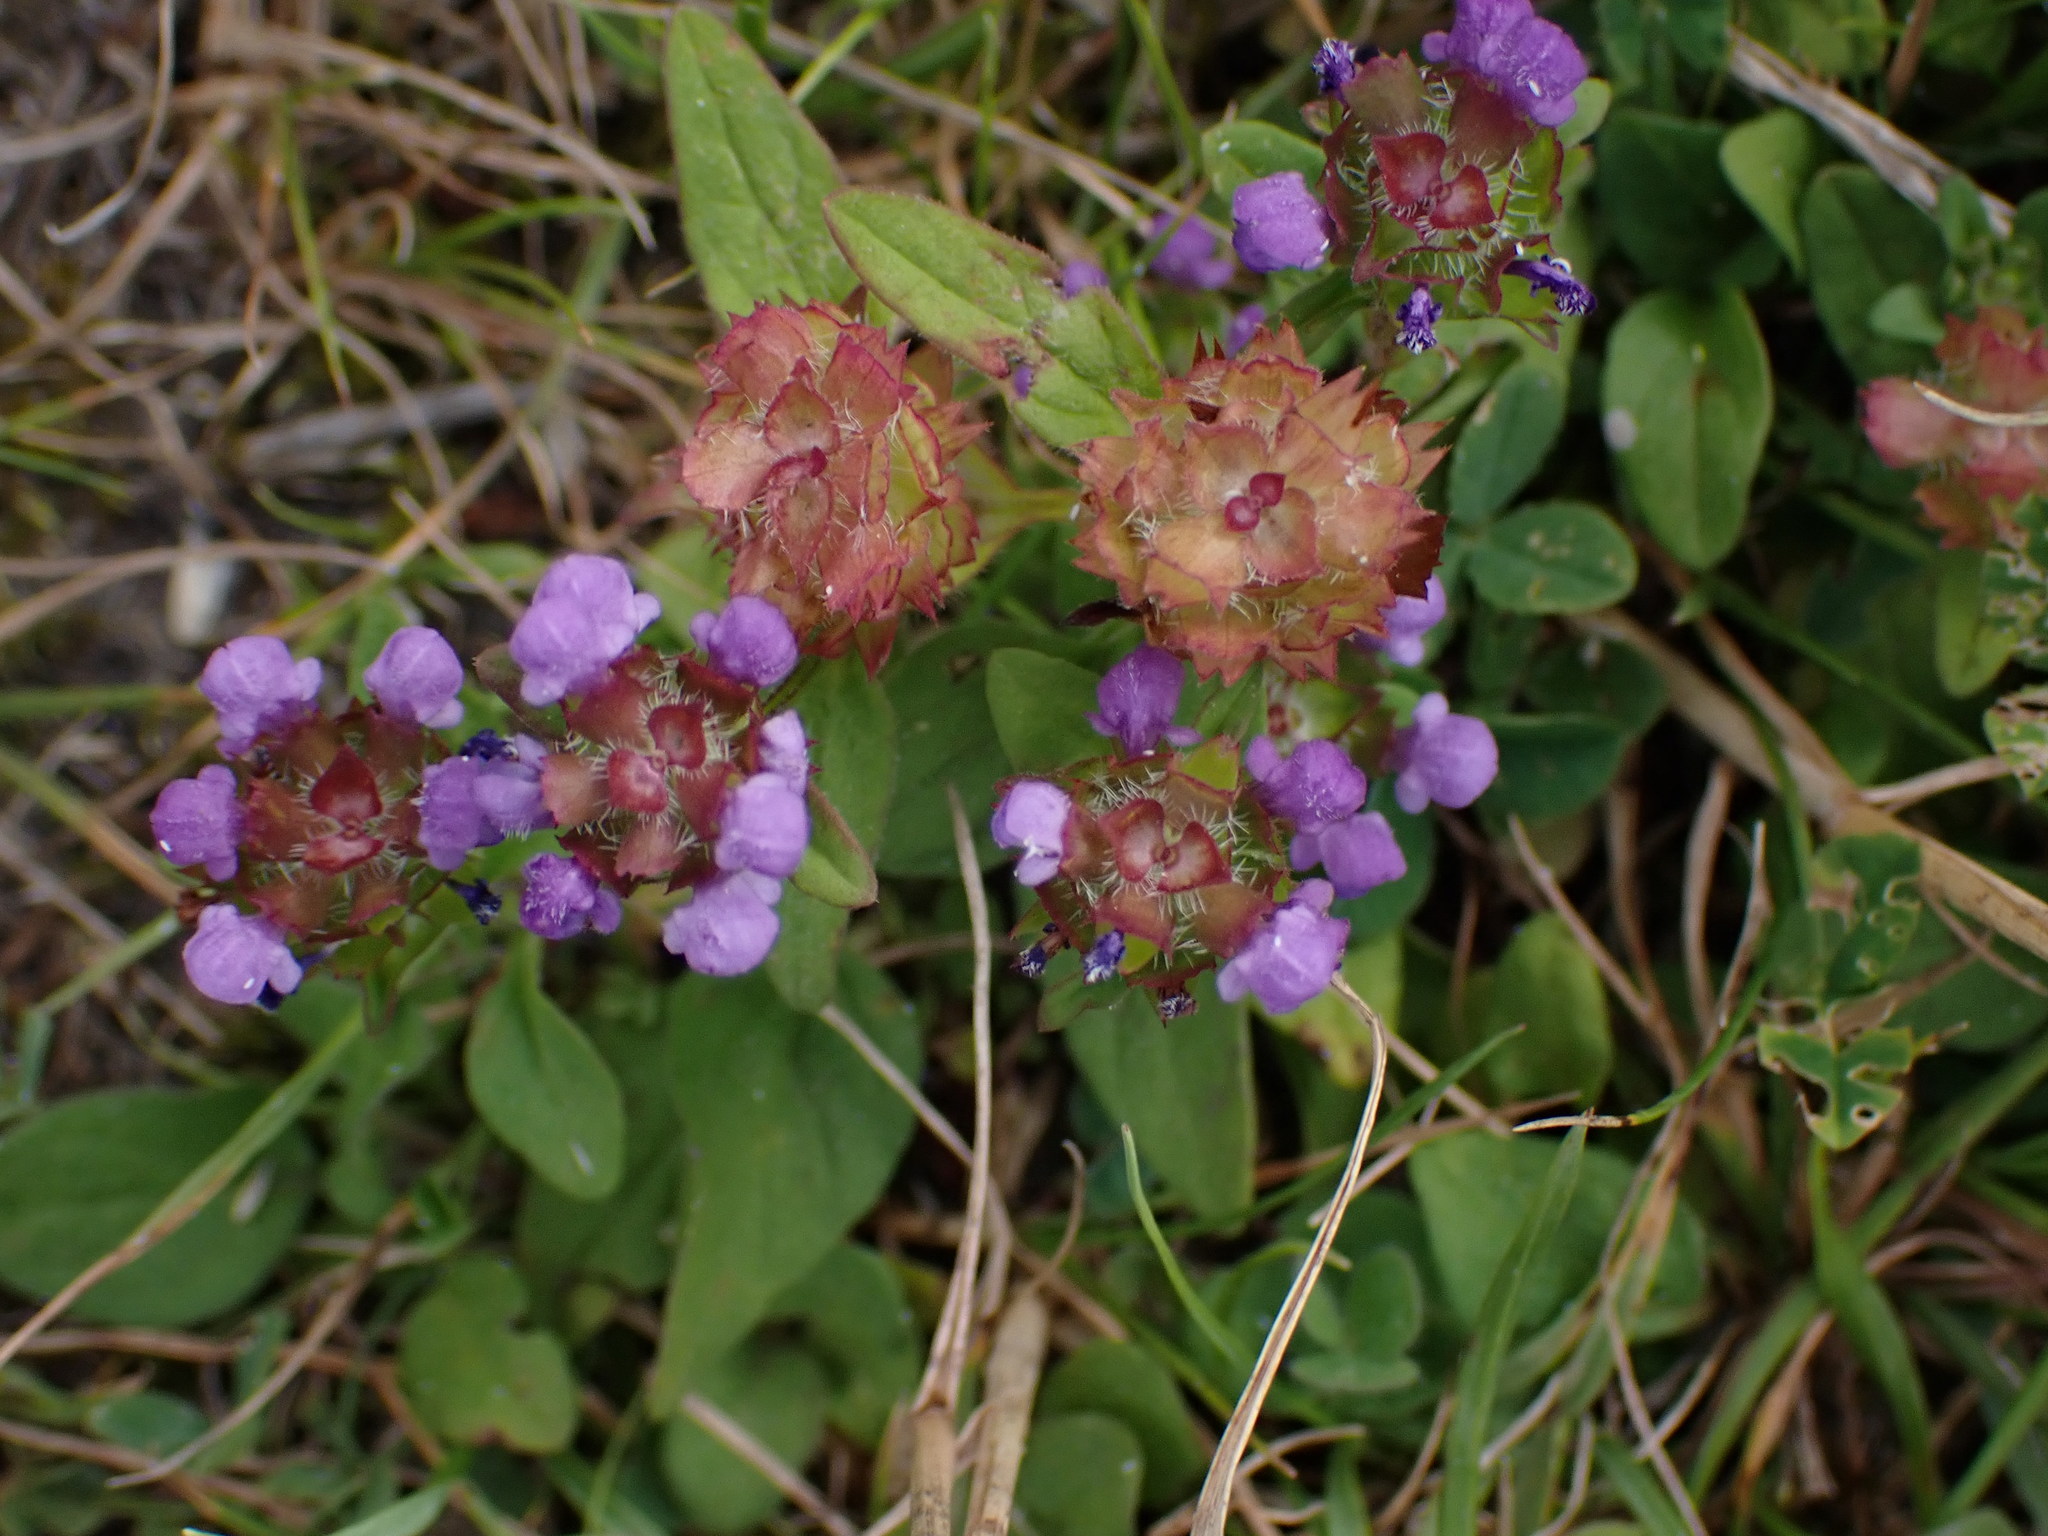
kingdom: Plantae
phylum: Tracheophyta
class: Magnoliopsida
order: Lamiales
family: Lamiaceae
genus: Prunella
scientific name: Prunella vulgaris
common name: Heal-all
